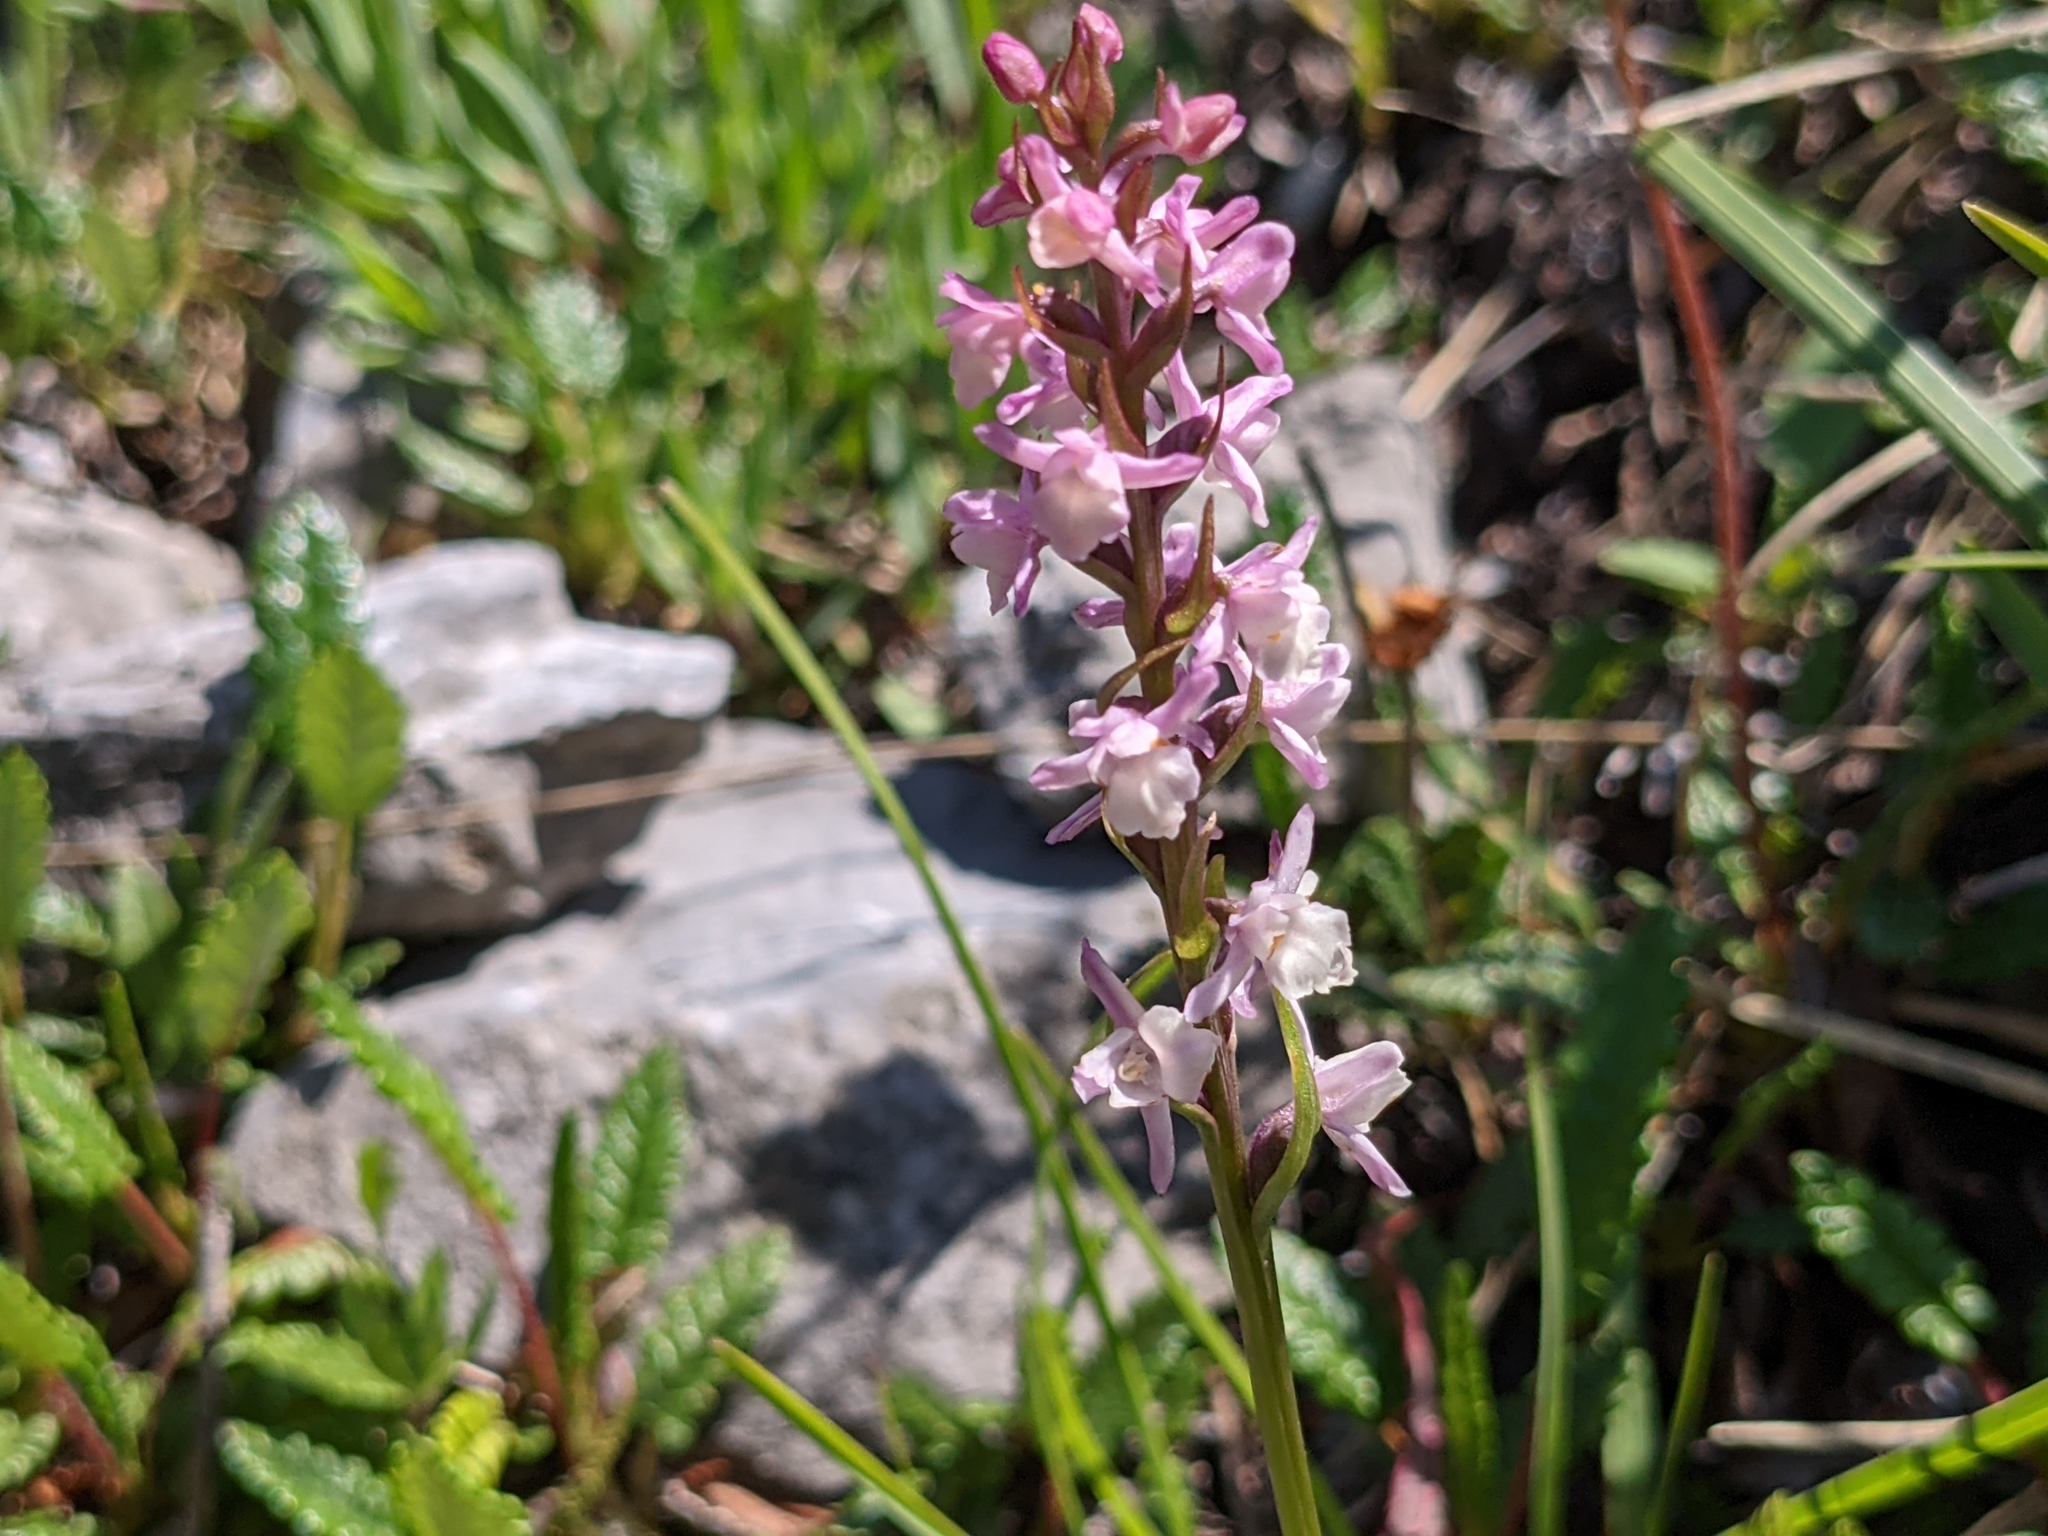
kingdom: Plantae
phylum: Tracheophyta
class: Liliopsida
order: Asparagales
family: Orchidaceae
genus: Gymnadenia
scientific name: Gymnadenia odoratissima
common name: Scented gymnadenia
